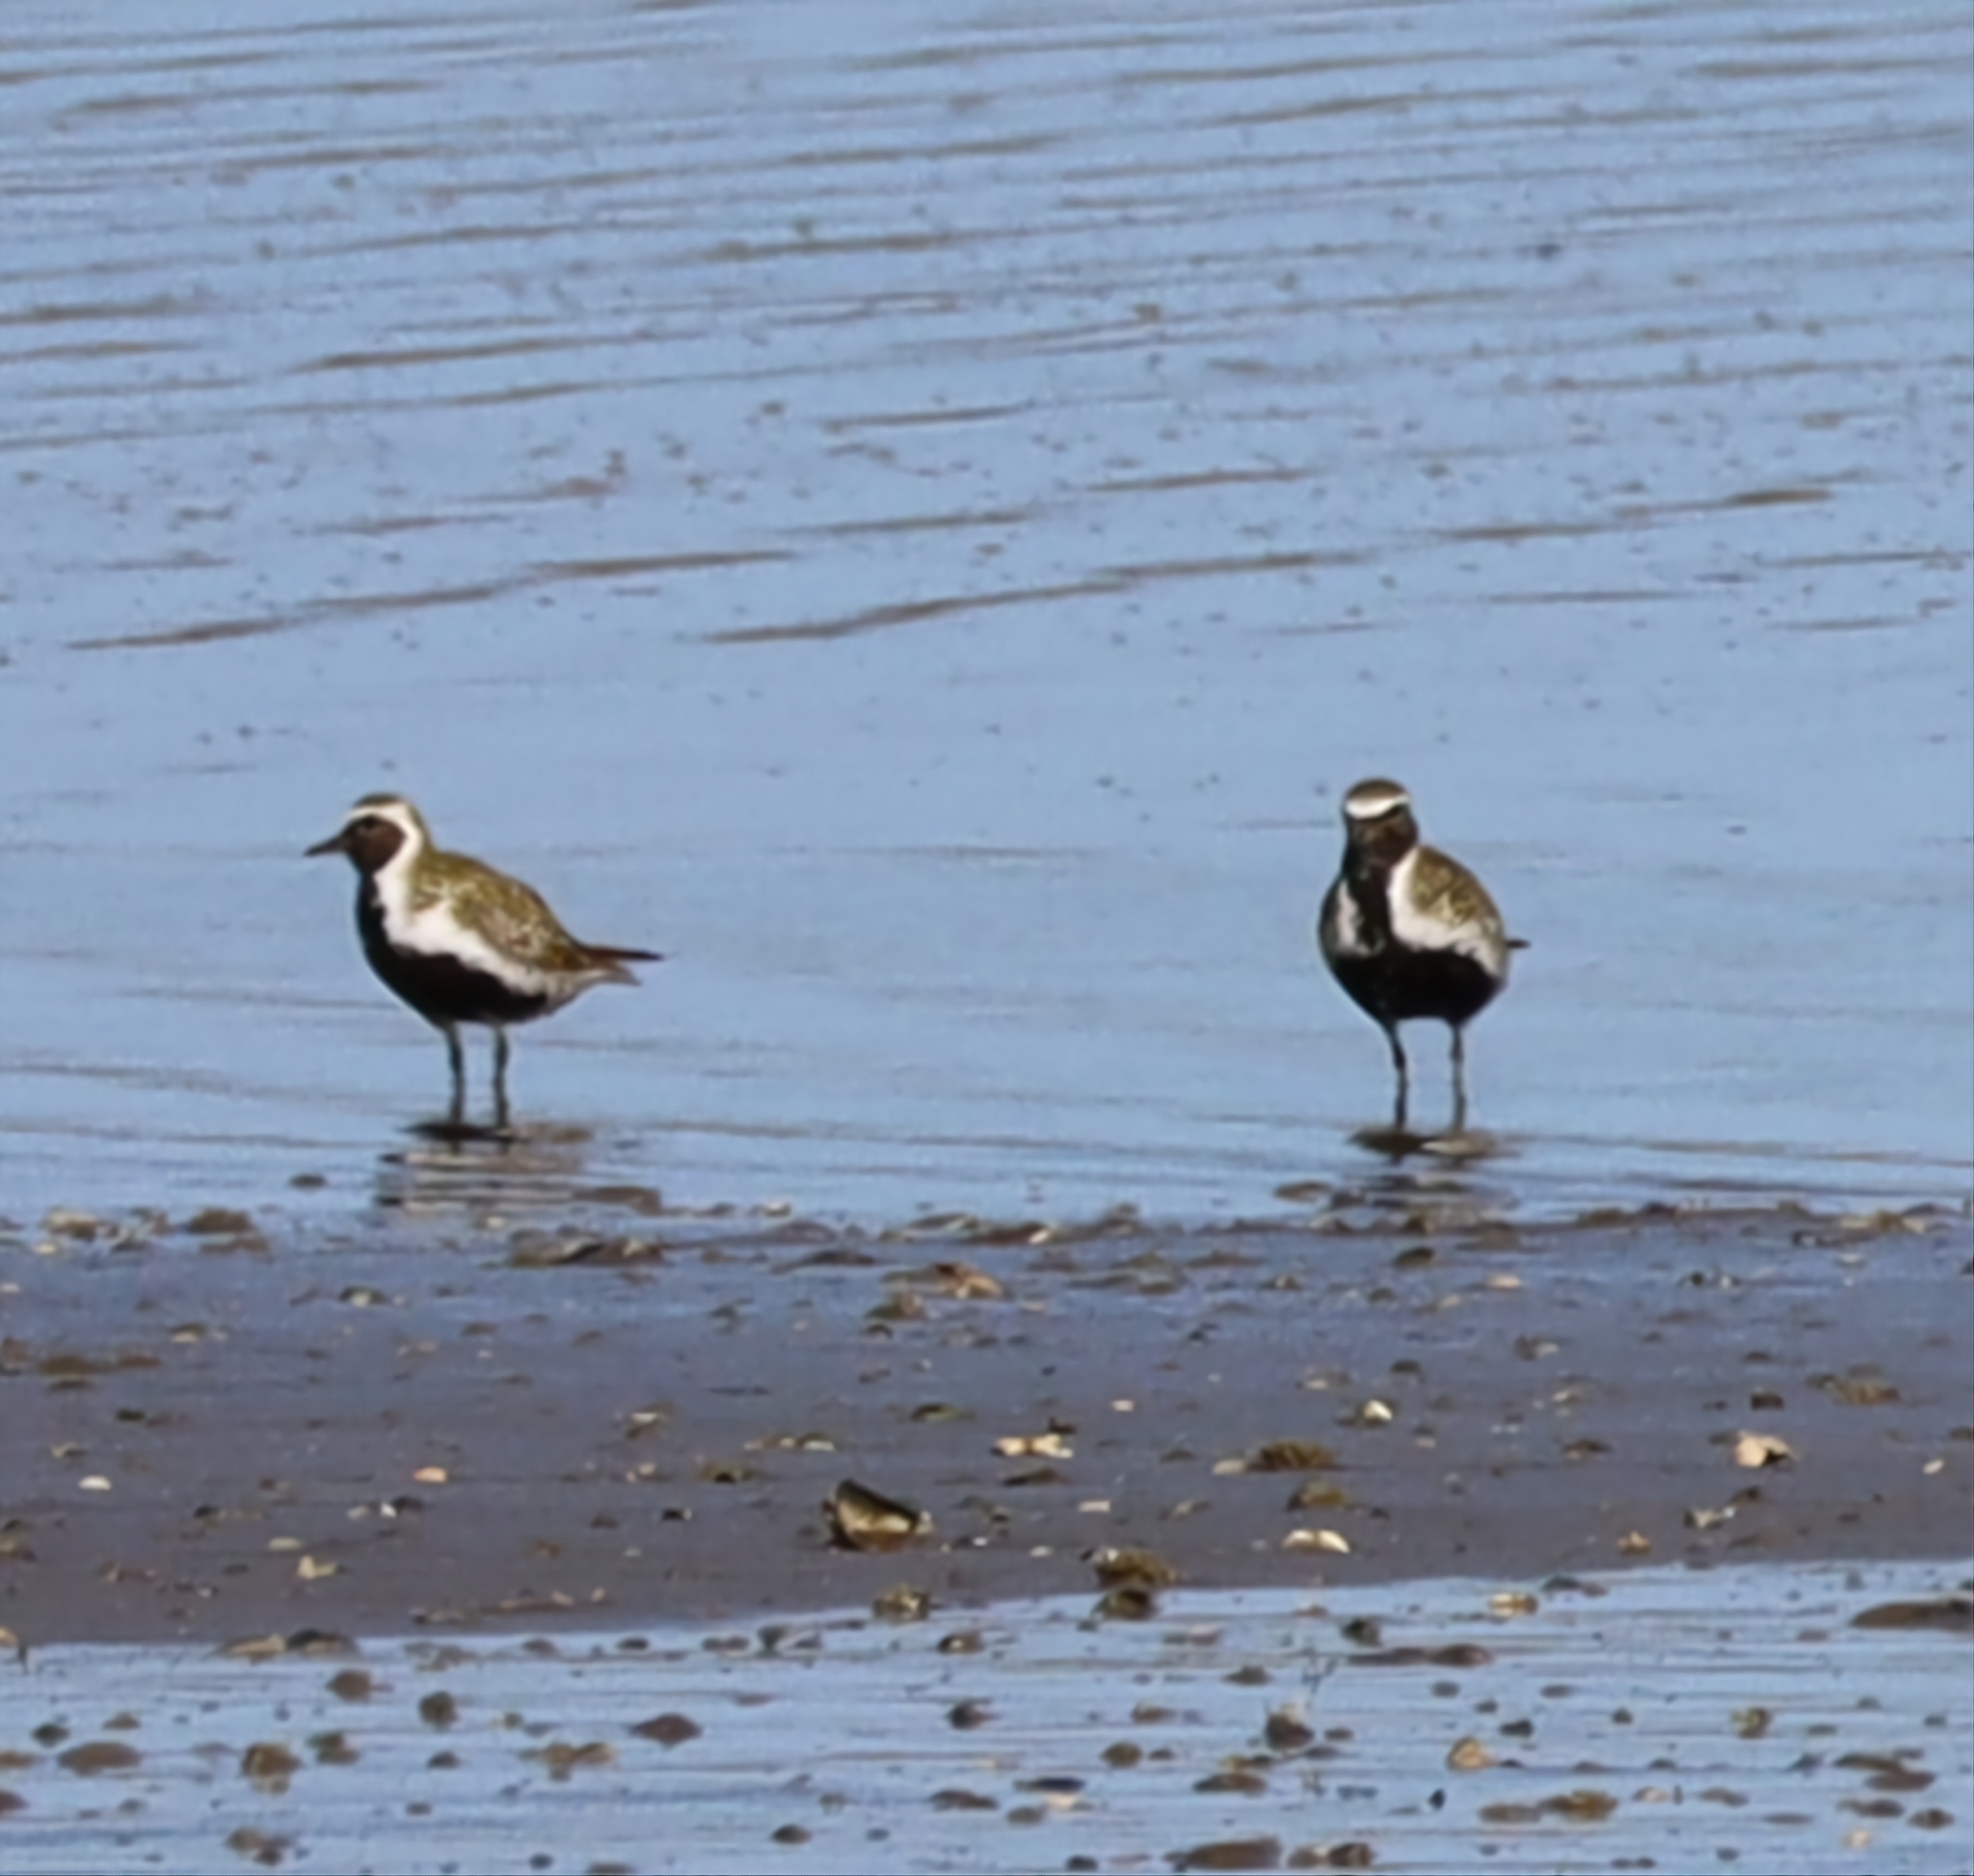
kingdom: Animalia
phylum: Chordata
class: Aves
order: Charadriiformes
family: Charadriidae
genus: Pluvialis
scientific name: Pluvialis apricaria
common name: European golden plover
